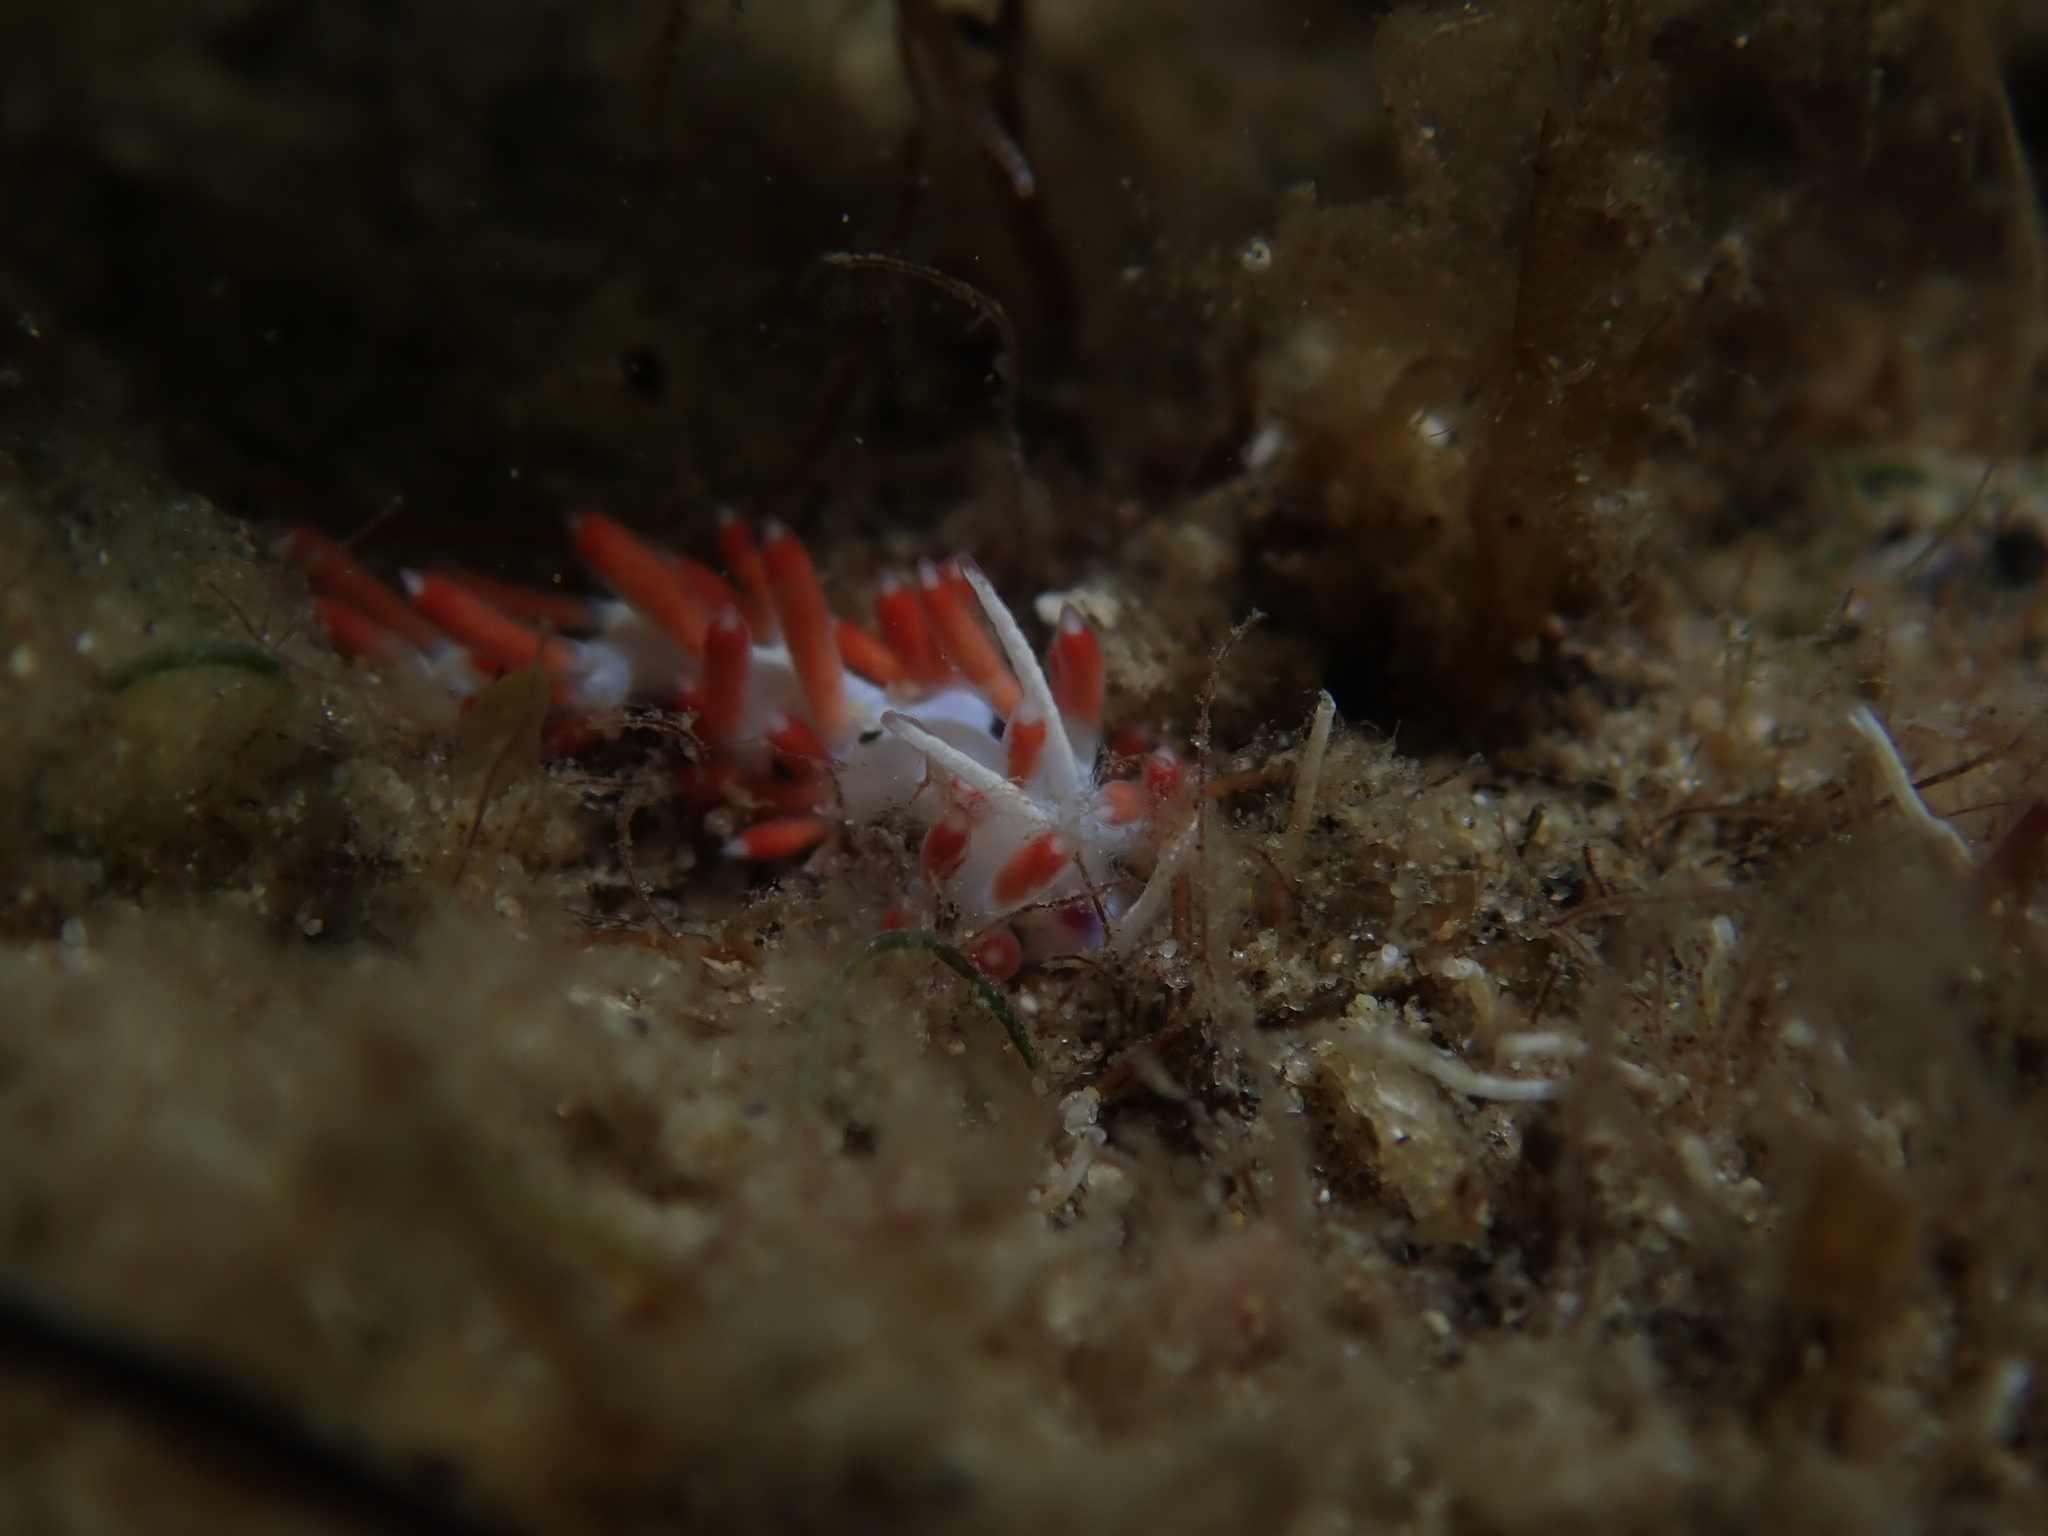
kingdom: Animalia
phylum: Mollusca
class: Gastropoda
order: Nudibranchia
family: Flabellinidae
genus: Calmella
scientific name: Calmella cavolini
